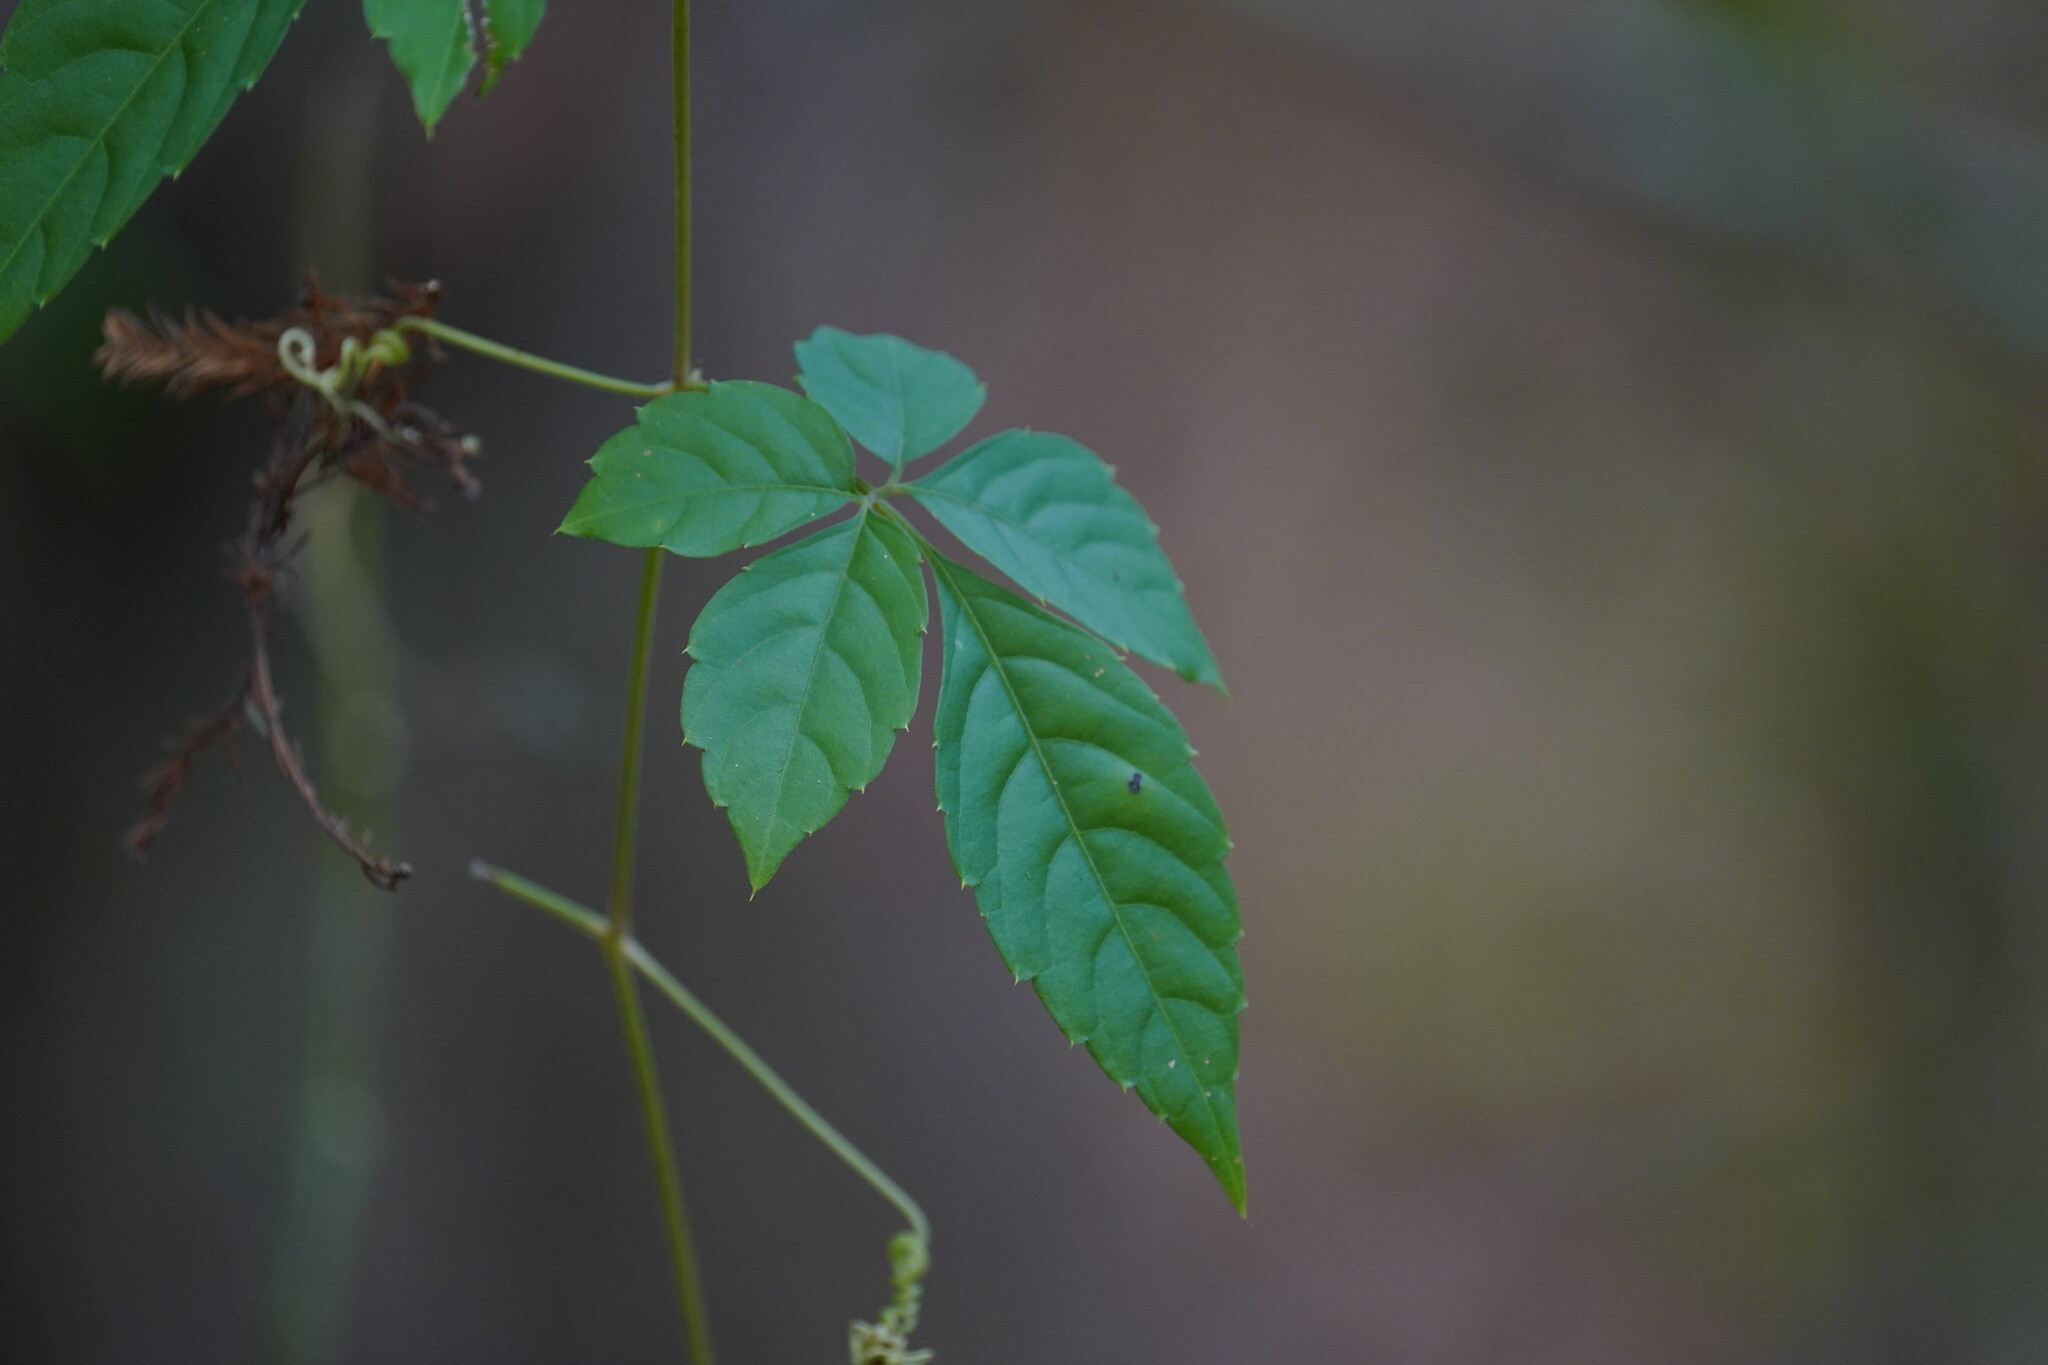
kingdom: Plantae
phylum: Tracheophyta
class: Magnoliopsida
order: Vitales
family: Vitaceae
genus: Causonis
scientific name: Causonis japonica
